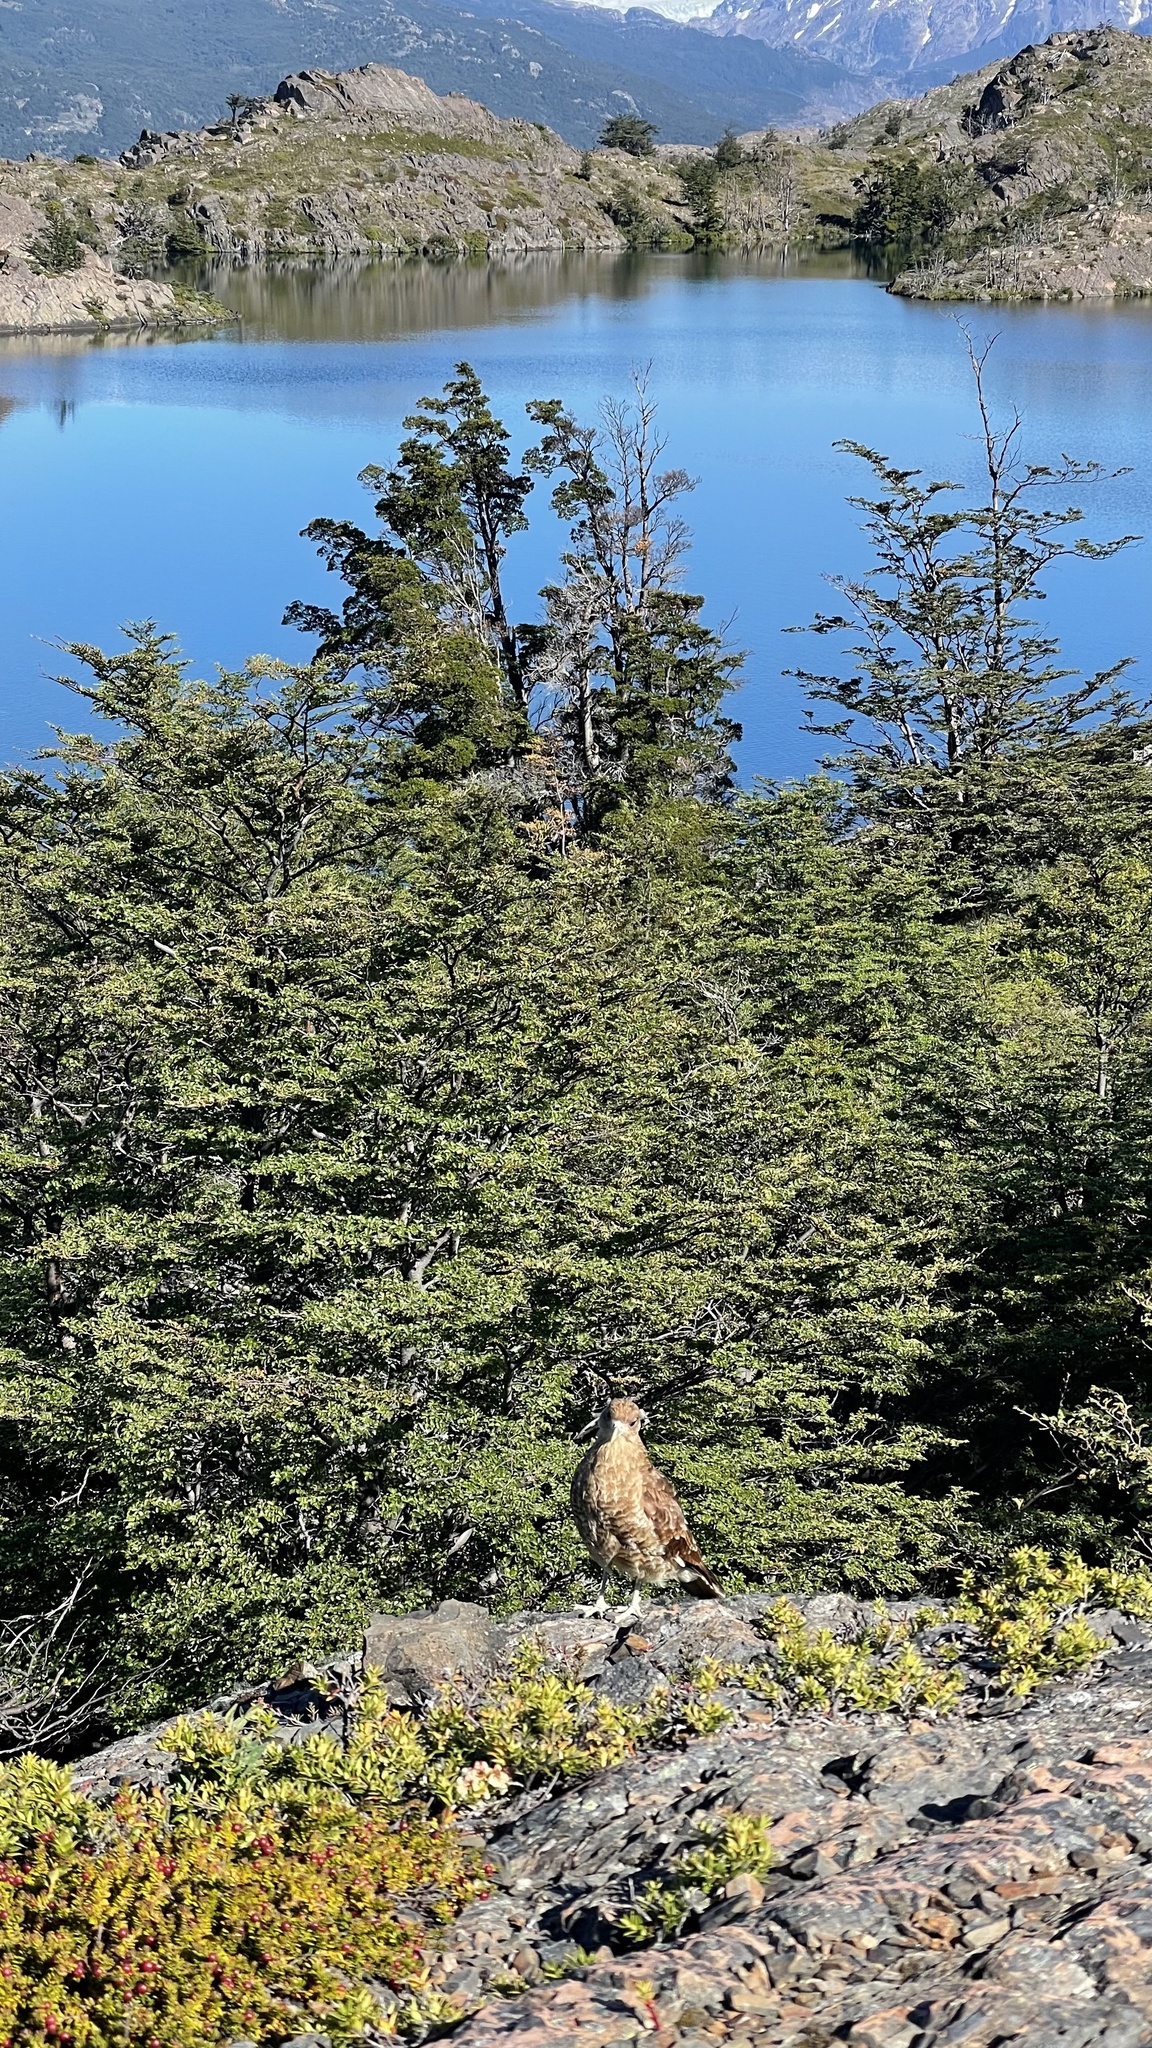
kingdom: Animalia
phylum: Chordata
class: Aves
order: Falconiformes
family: Falconidae
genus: Daptrius
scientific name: Daptrius
